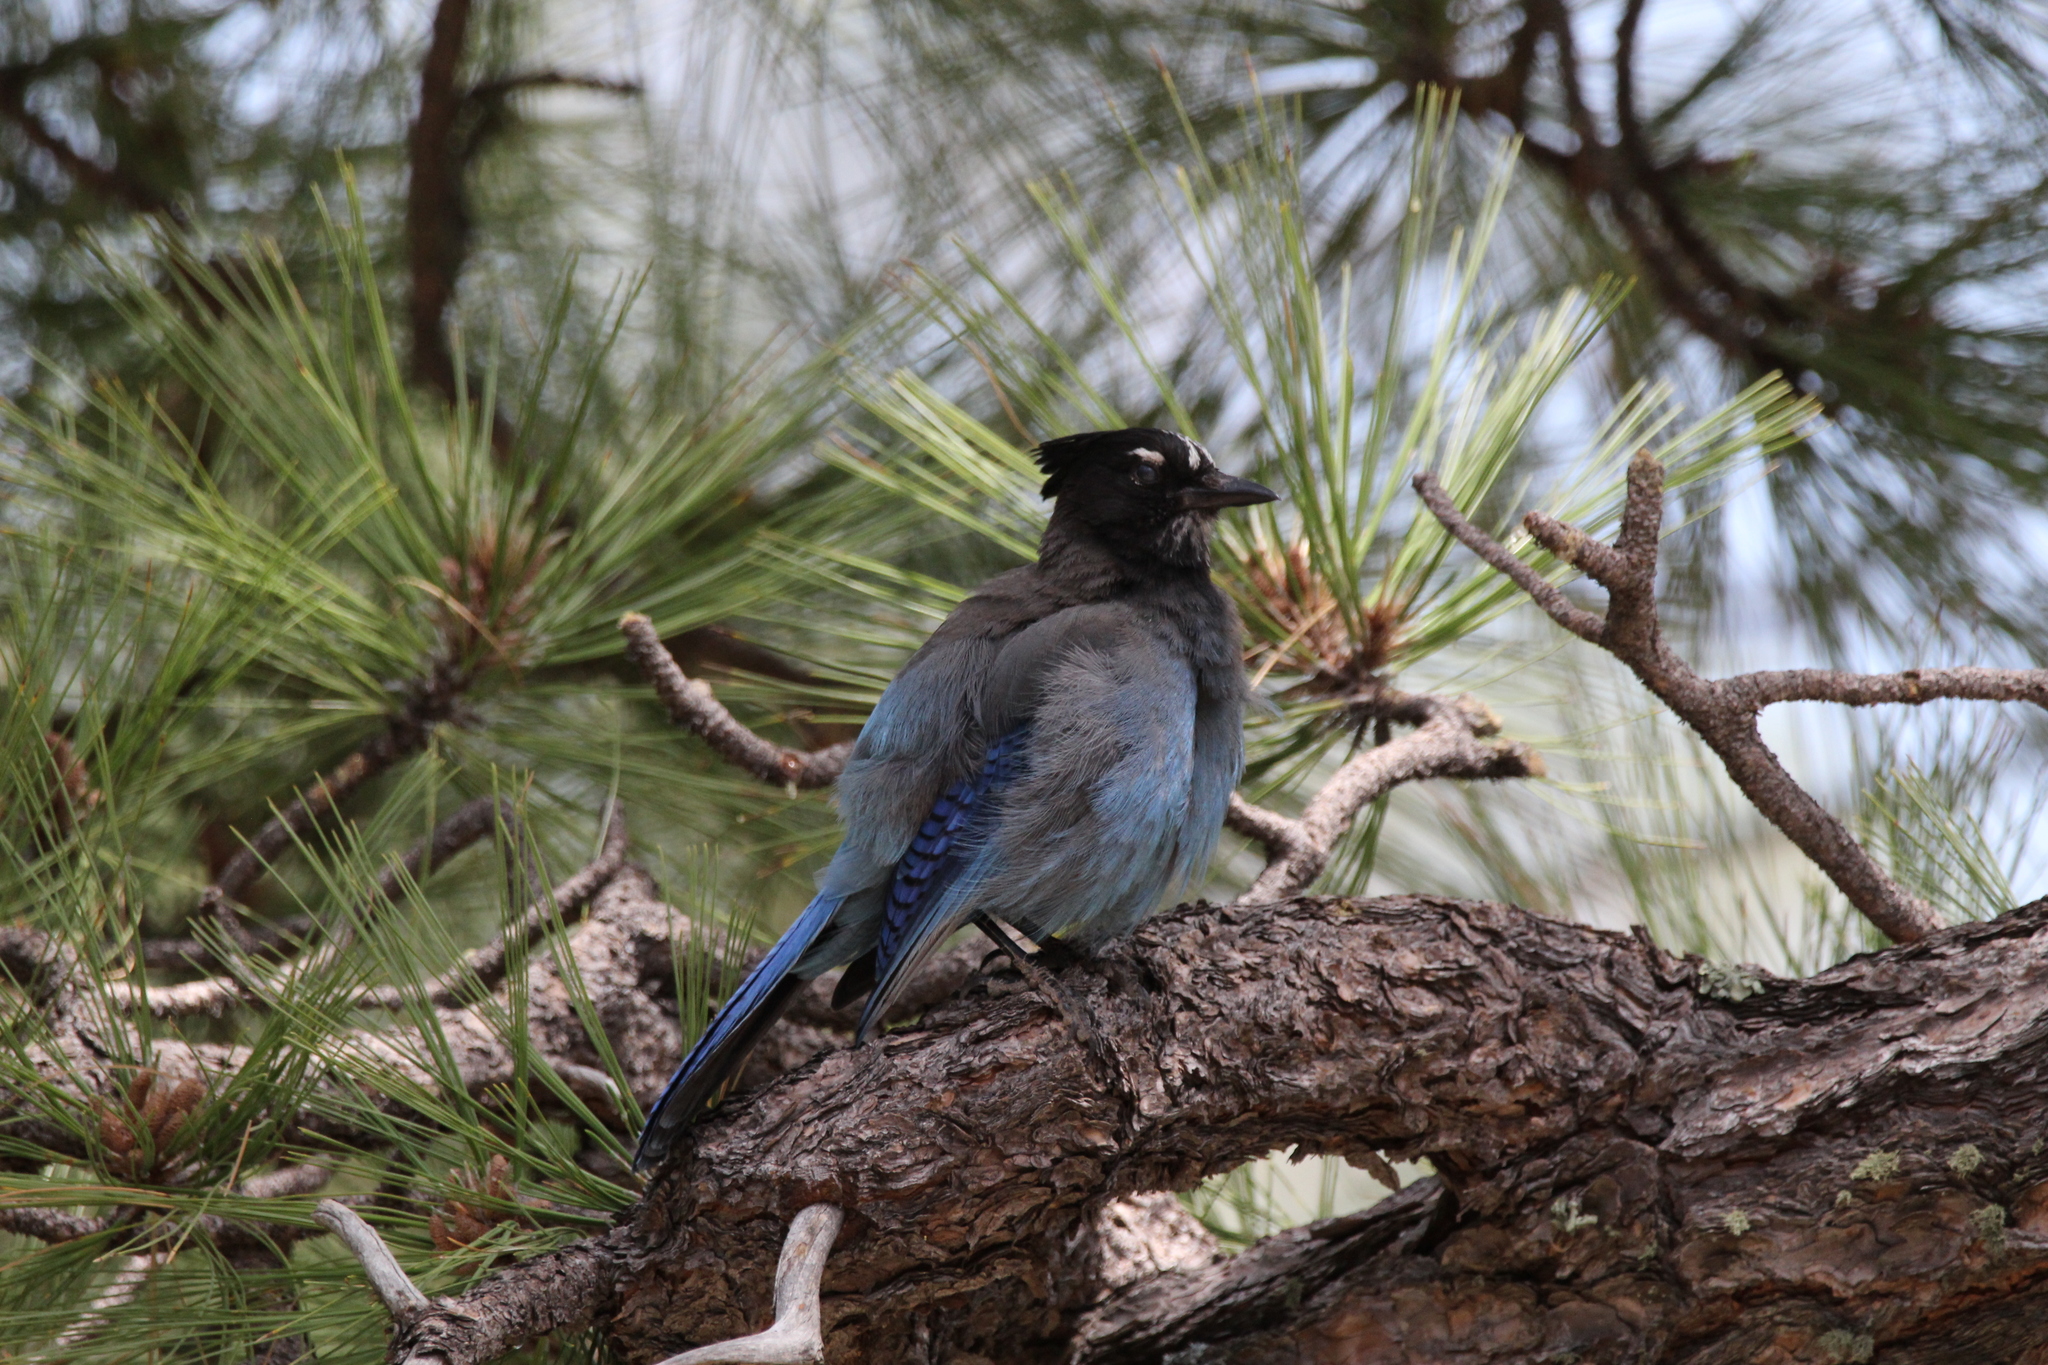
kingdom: Animalia
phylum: Chordata
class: Aves
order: Passeriformes
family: Corvidae
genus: Cyanocitta
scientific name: Cyanocitta stelleri
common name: Steller's jay
